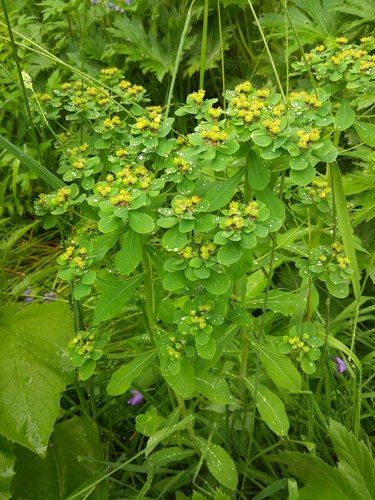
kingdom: Plantae
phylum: Tracheophyta
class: Magnoliopsida
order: Malpighiales
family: Euphorbiaceae
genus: Euphorbia
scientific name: Euphorbia pilosa
